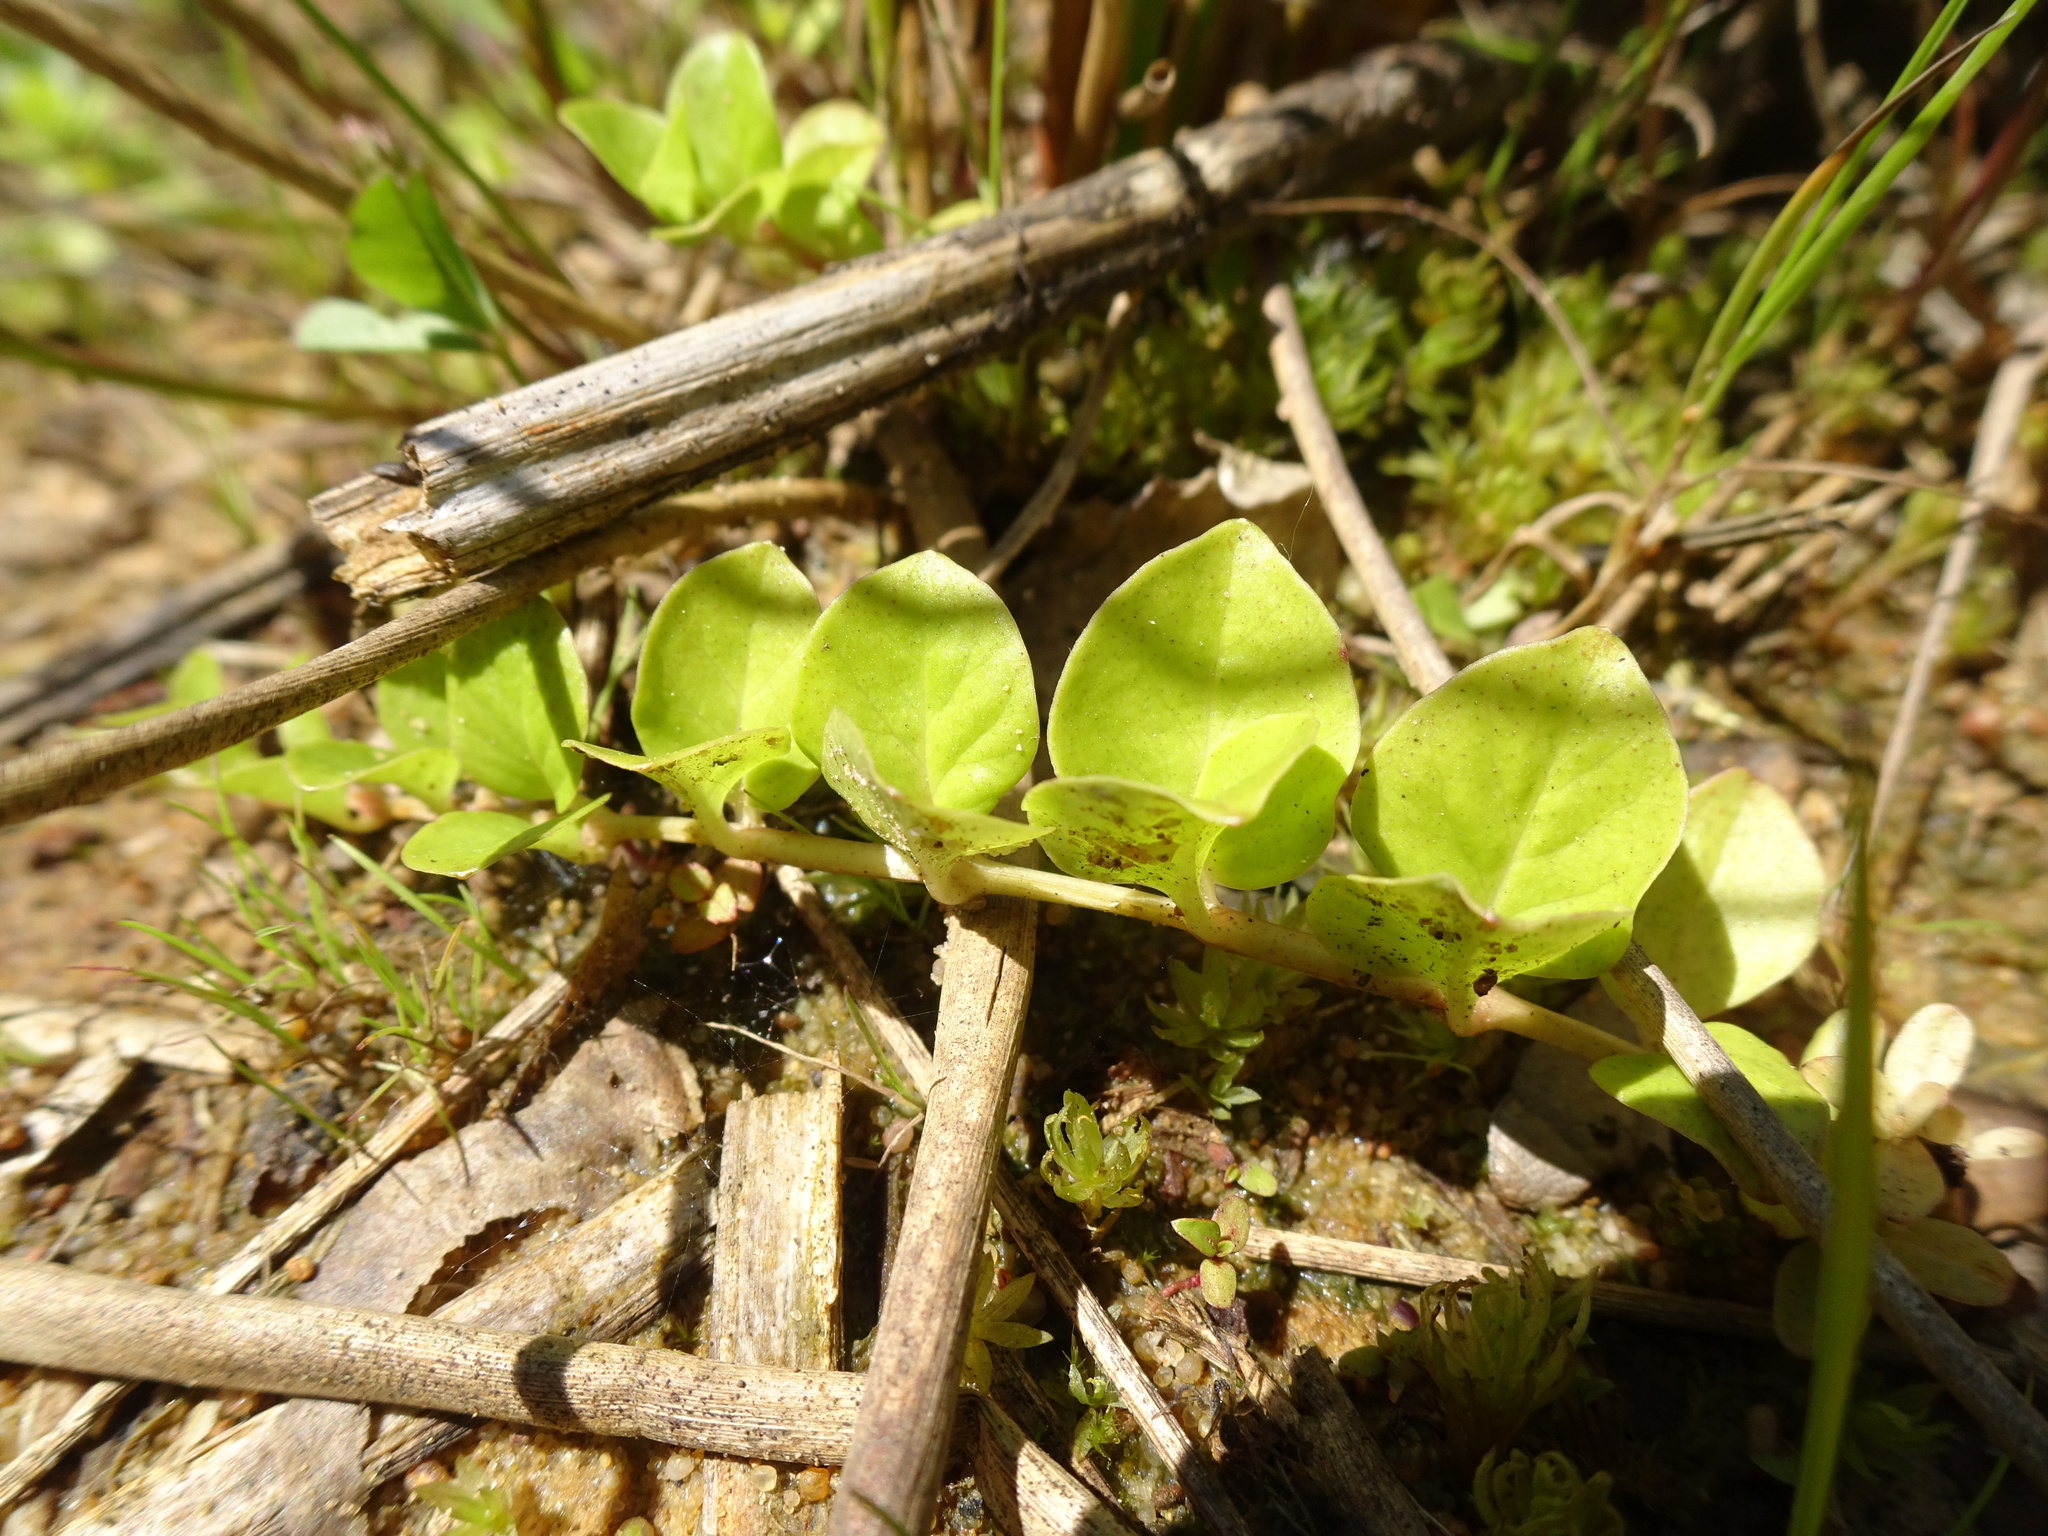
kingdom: Plantae
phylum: Tracheophyta
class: Magnoliopsida
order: Ericales
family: Primulaceae
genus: Lysimachia
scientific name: Lysimachia nummularia
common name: Moneywort
